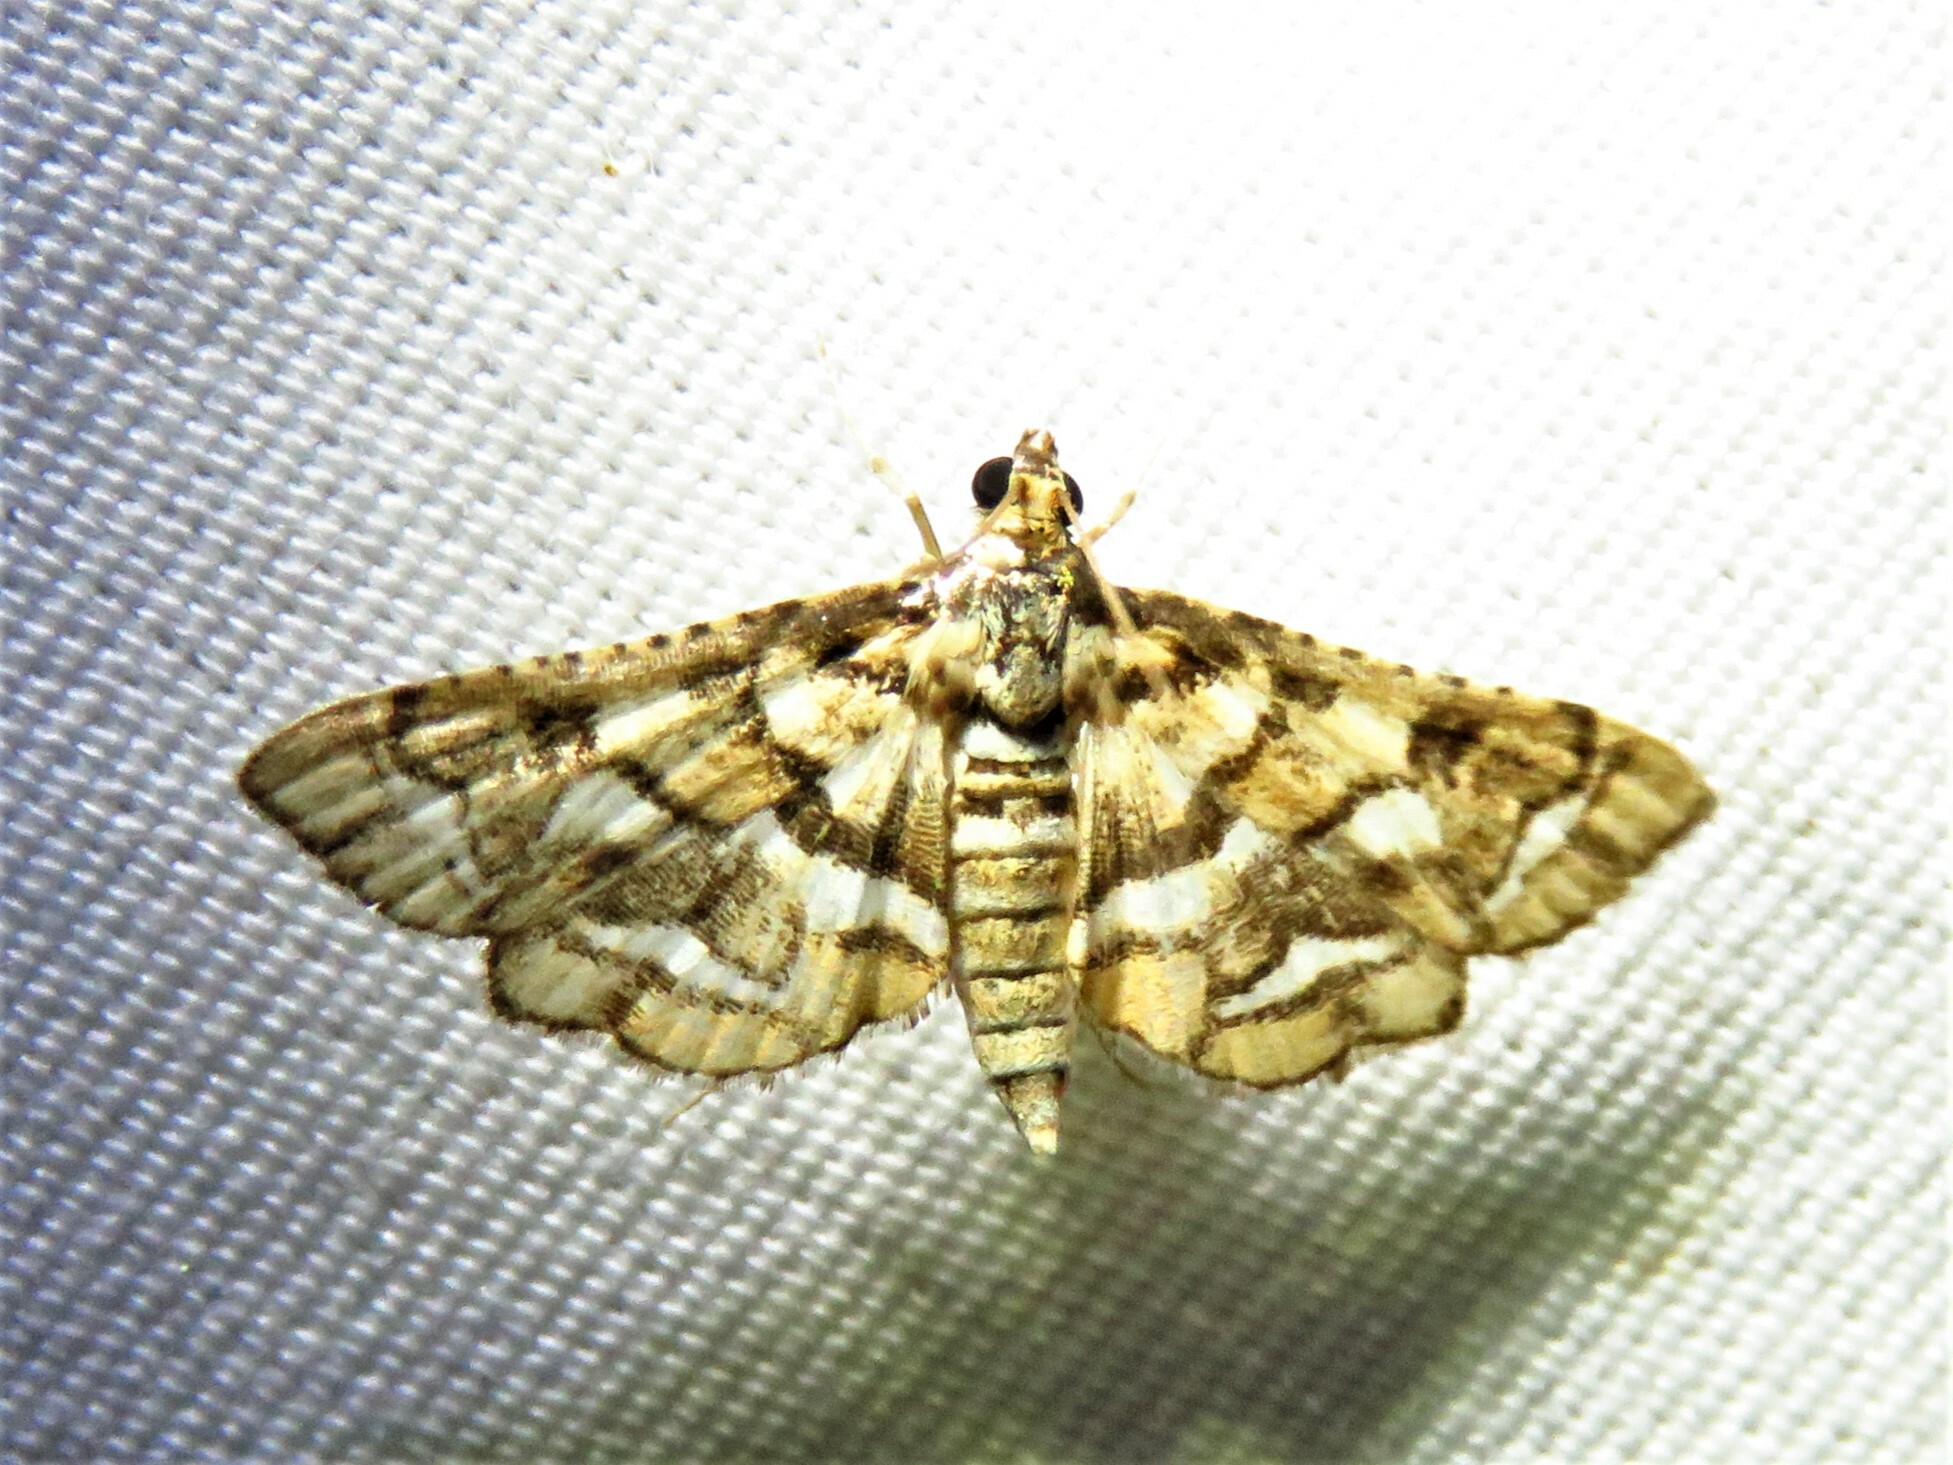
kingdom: Animalia
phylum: Arthropoda
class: Insecta
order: Lepidoptera
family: Crambidae
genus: Hileithia
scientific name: Hileithia magualis
